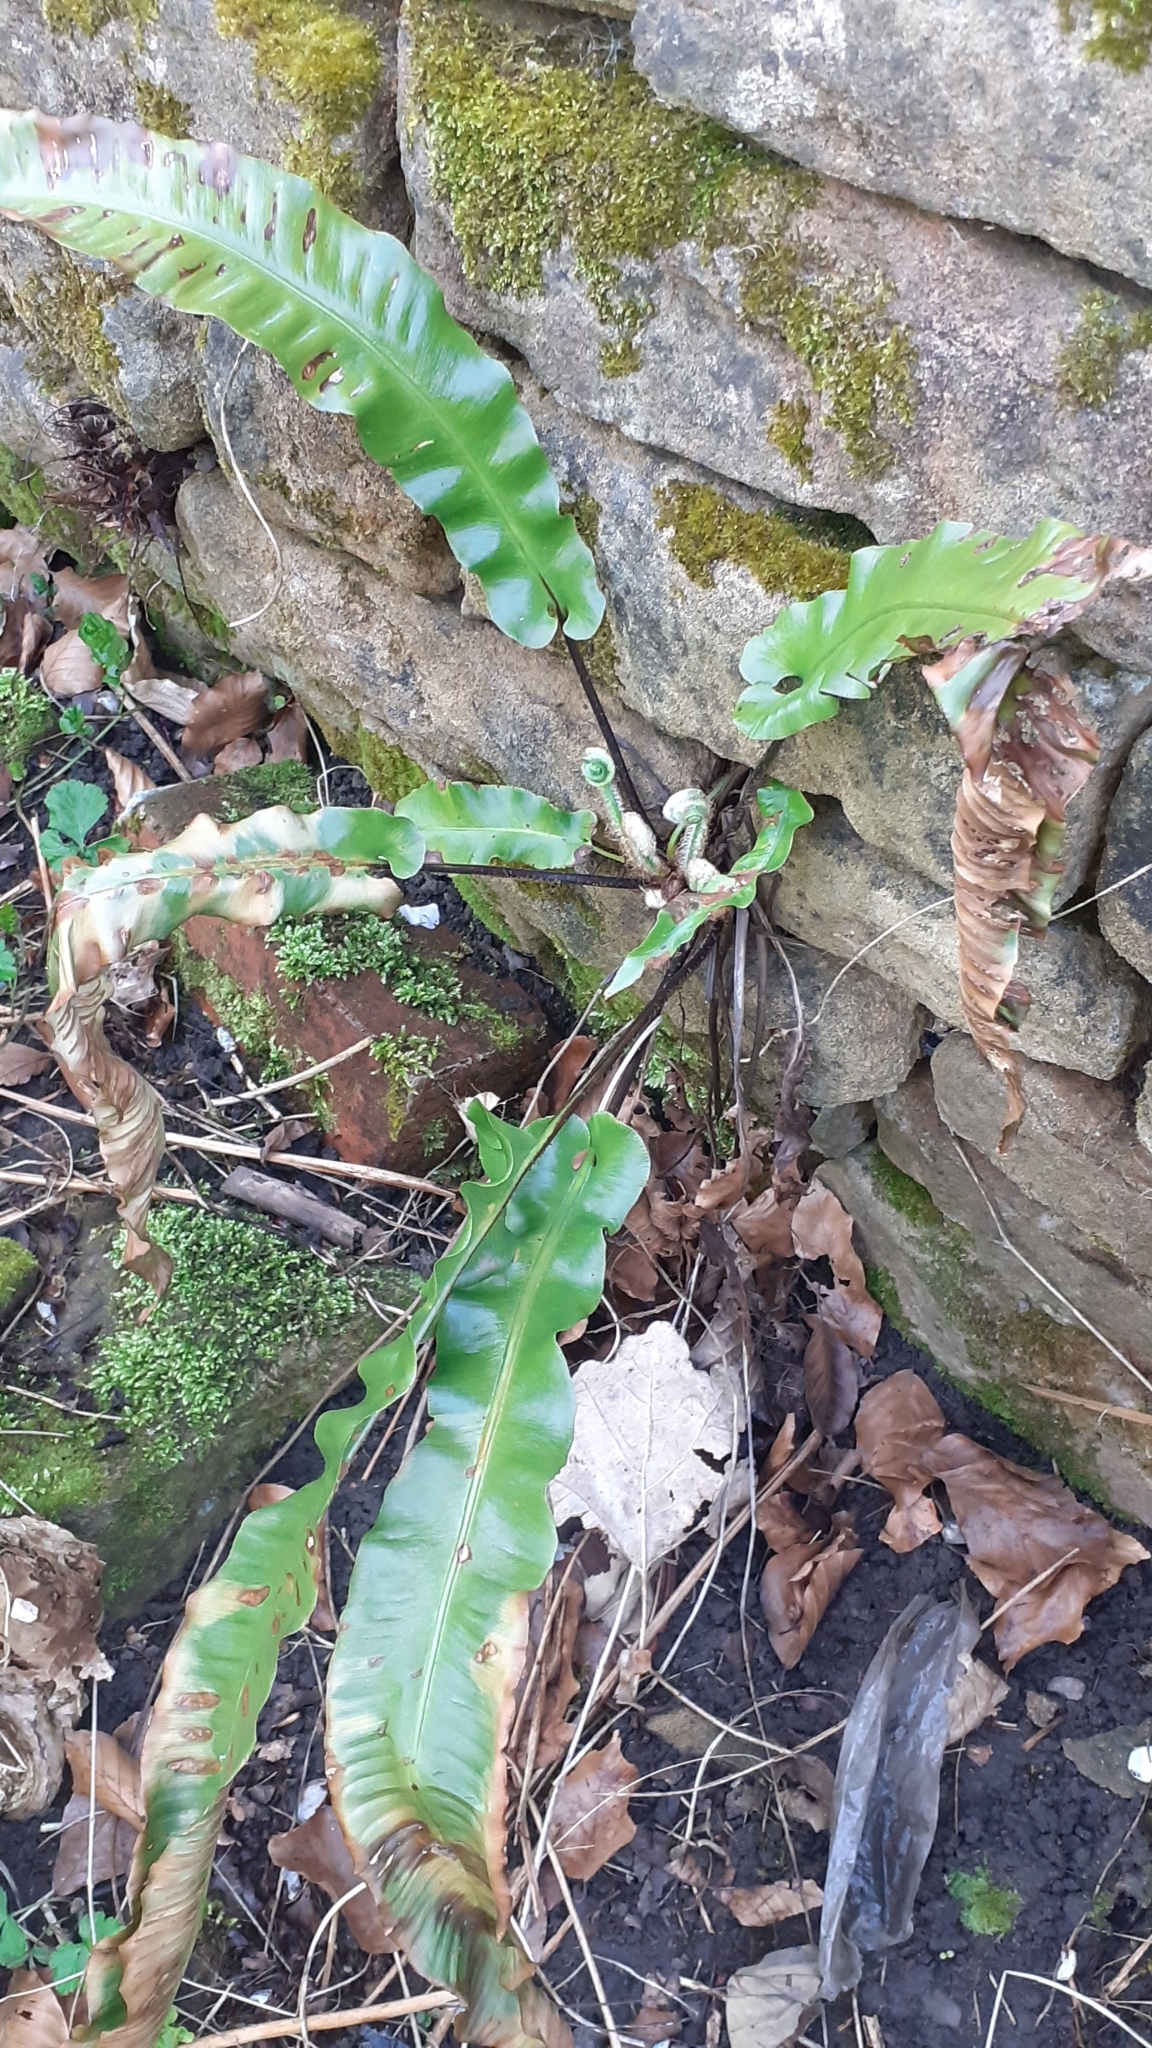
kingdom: Plantae
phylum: Tracheophyta
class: Polypodiopsida
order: Polypodiales
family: Aspleniaceae
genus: Asplenium
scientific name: Asplenium scolopendrium
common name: Hart's-tongue fern
